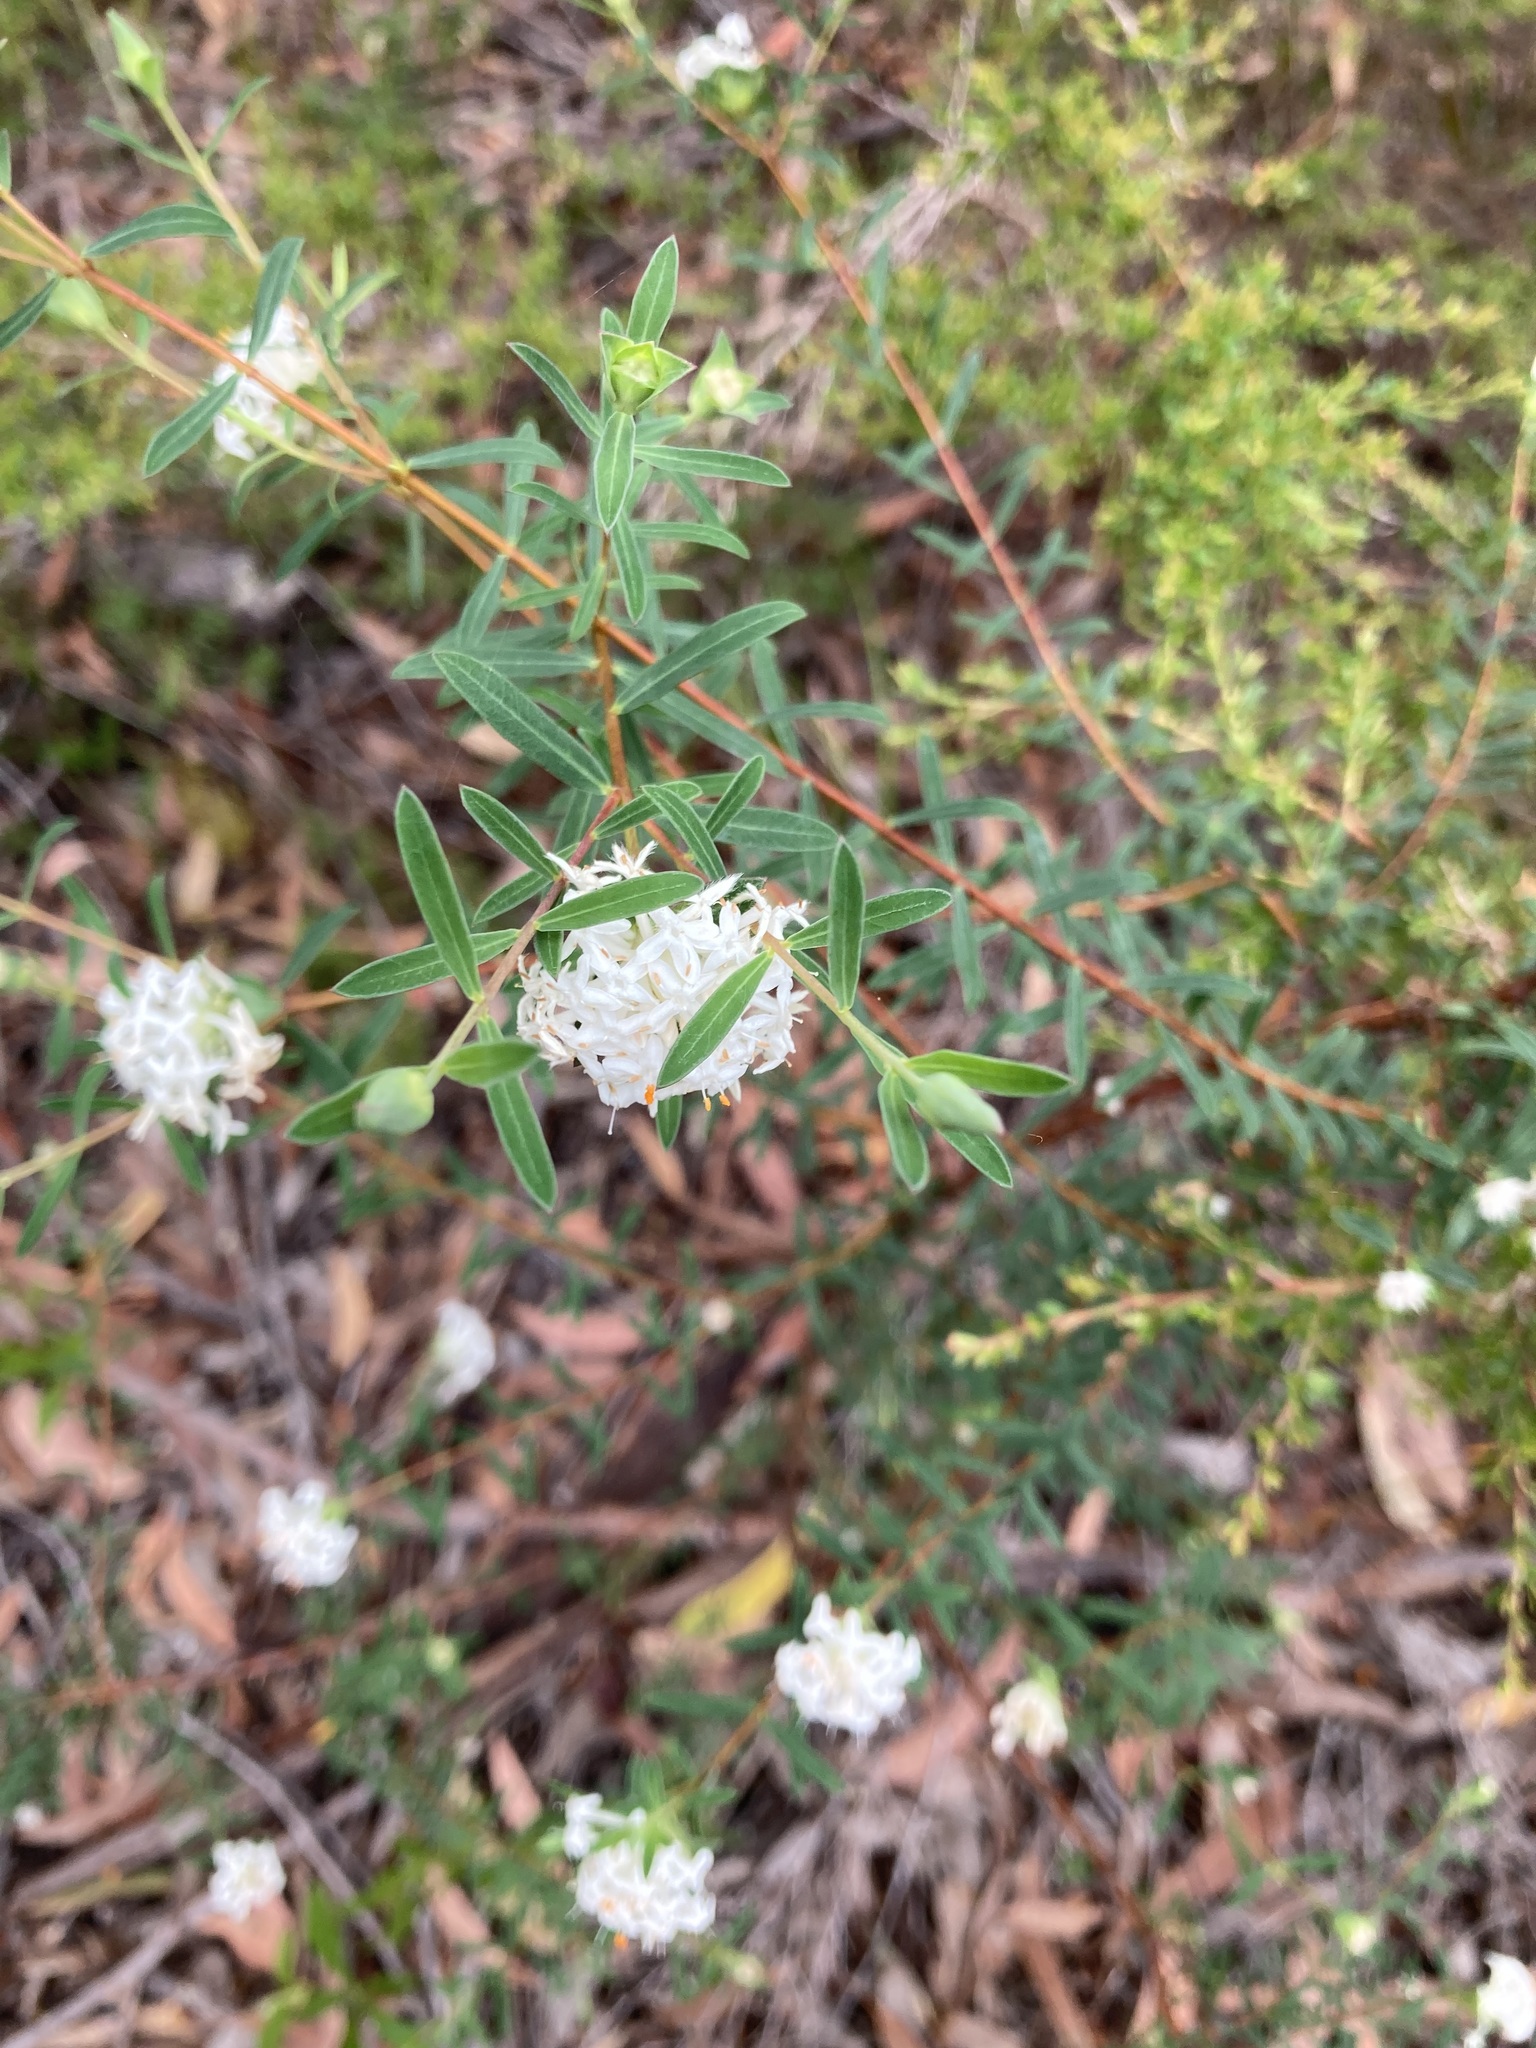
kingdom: Plantae
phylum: Tracheophyta
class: Magnoliopsida
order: Malvales
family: Thymelaeaceae
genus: Pimelea
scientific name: Pimelea linifolia
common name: Queen-of-the-bush
